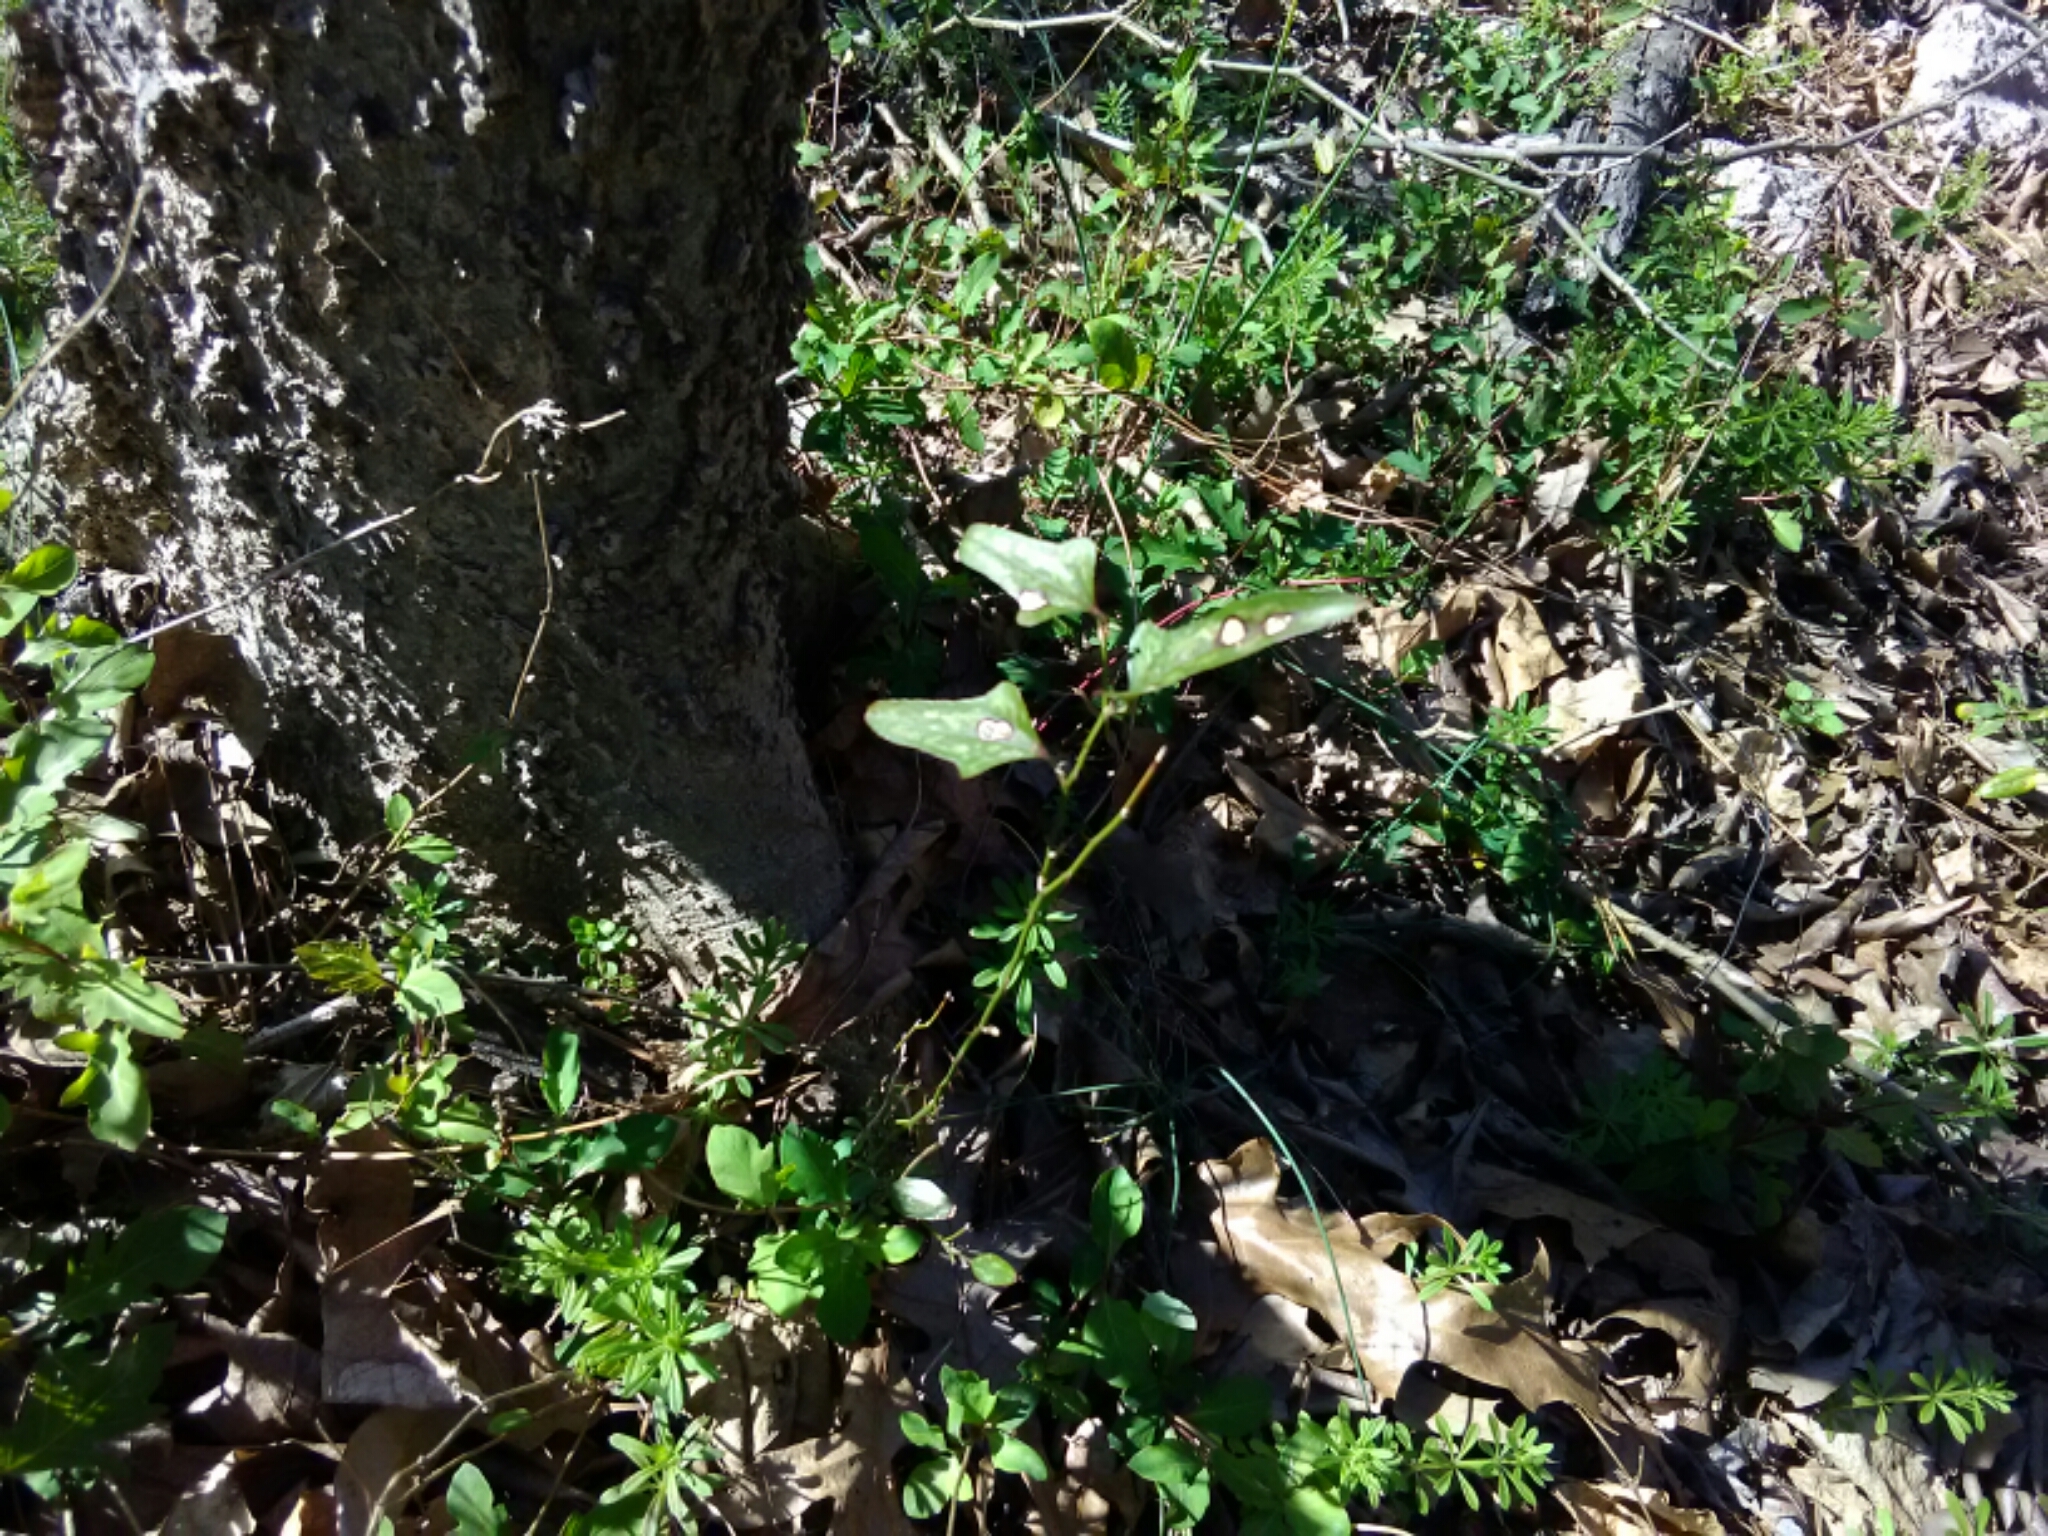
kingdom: Plantae
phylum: Tracheophyta
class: Liliopsida
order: Liliales
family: Smilacaceae
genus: Smilax
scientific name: Smilax bona-nox
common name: Catbrier
